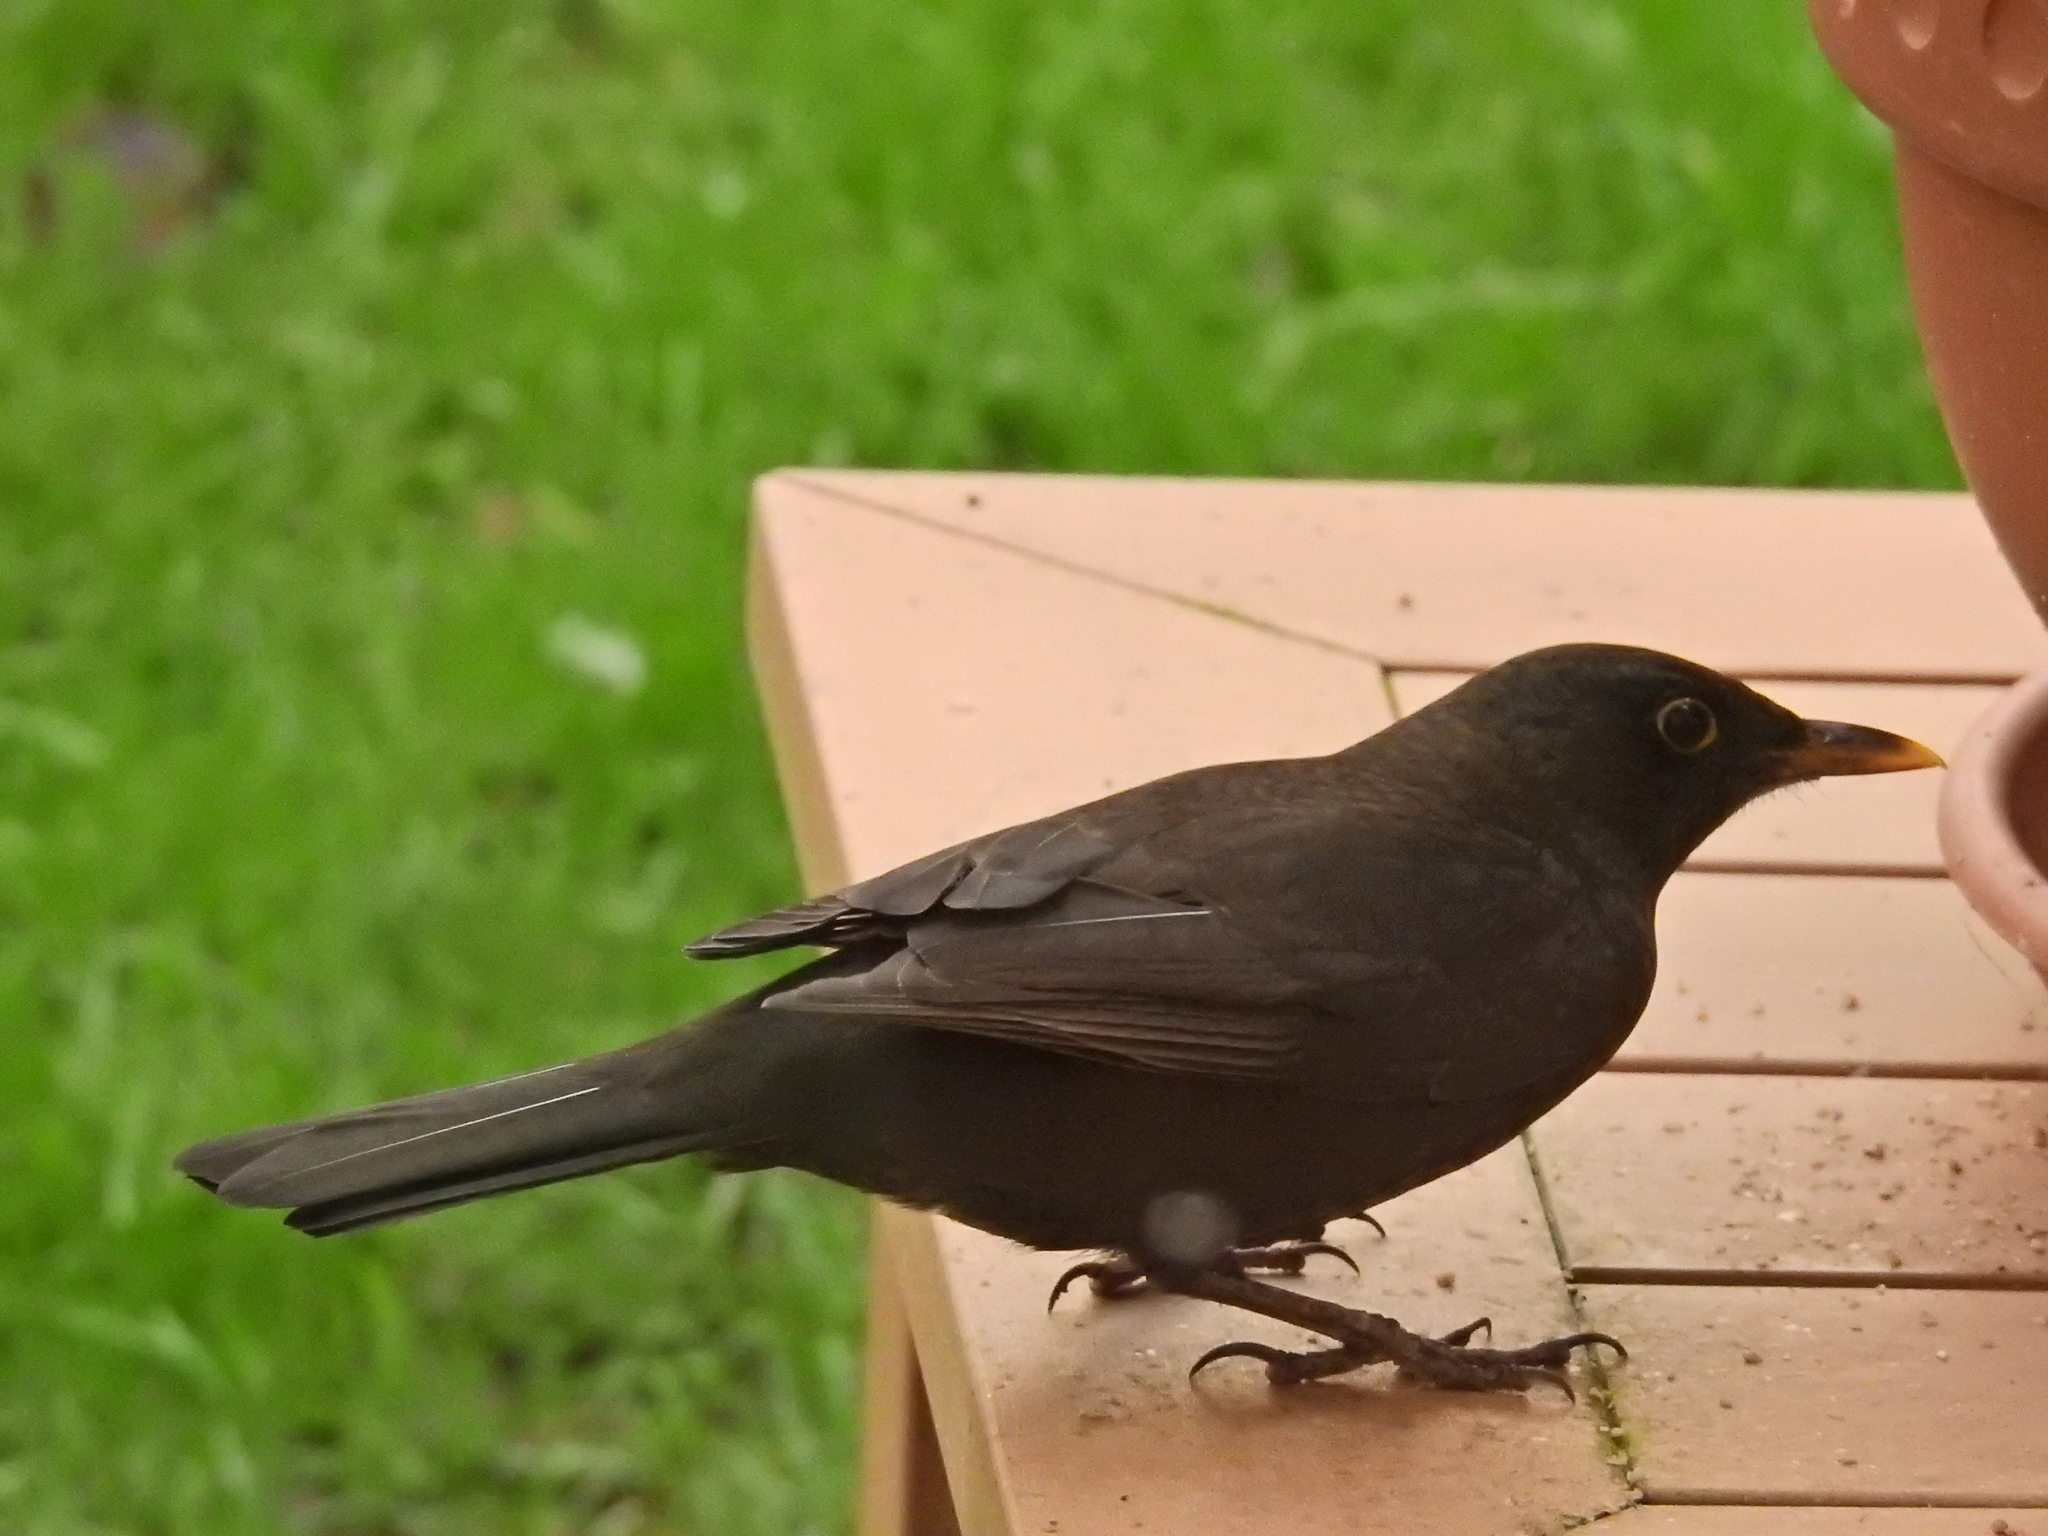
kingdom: Animalia
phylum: Chordata
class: Aves
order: Passeriformes
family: Turdidae
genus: Turdus
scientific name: Turdus merula
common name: Common blackbird
